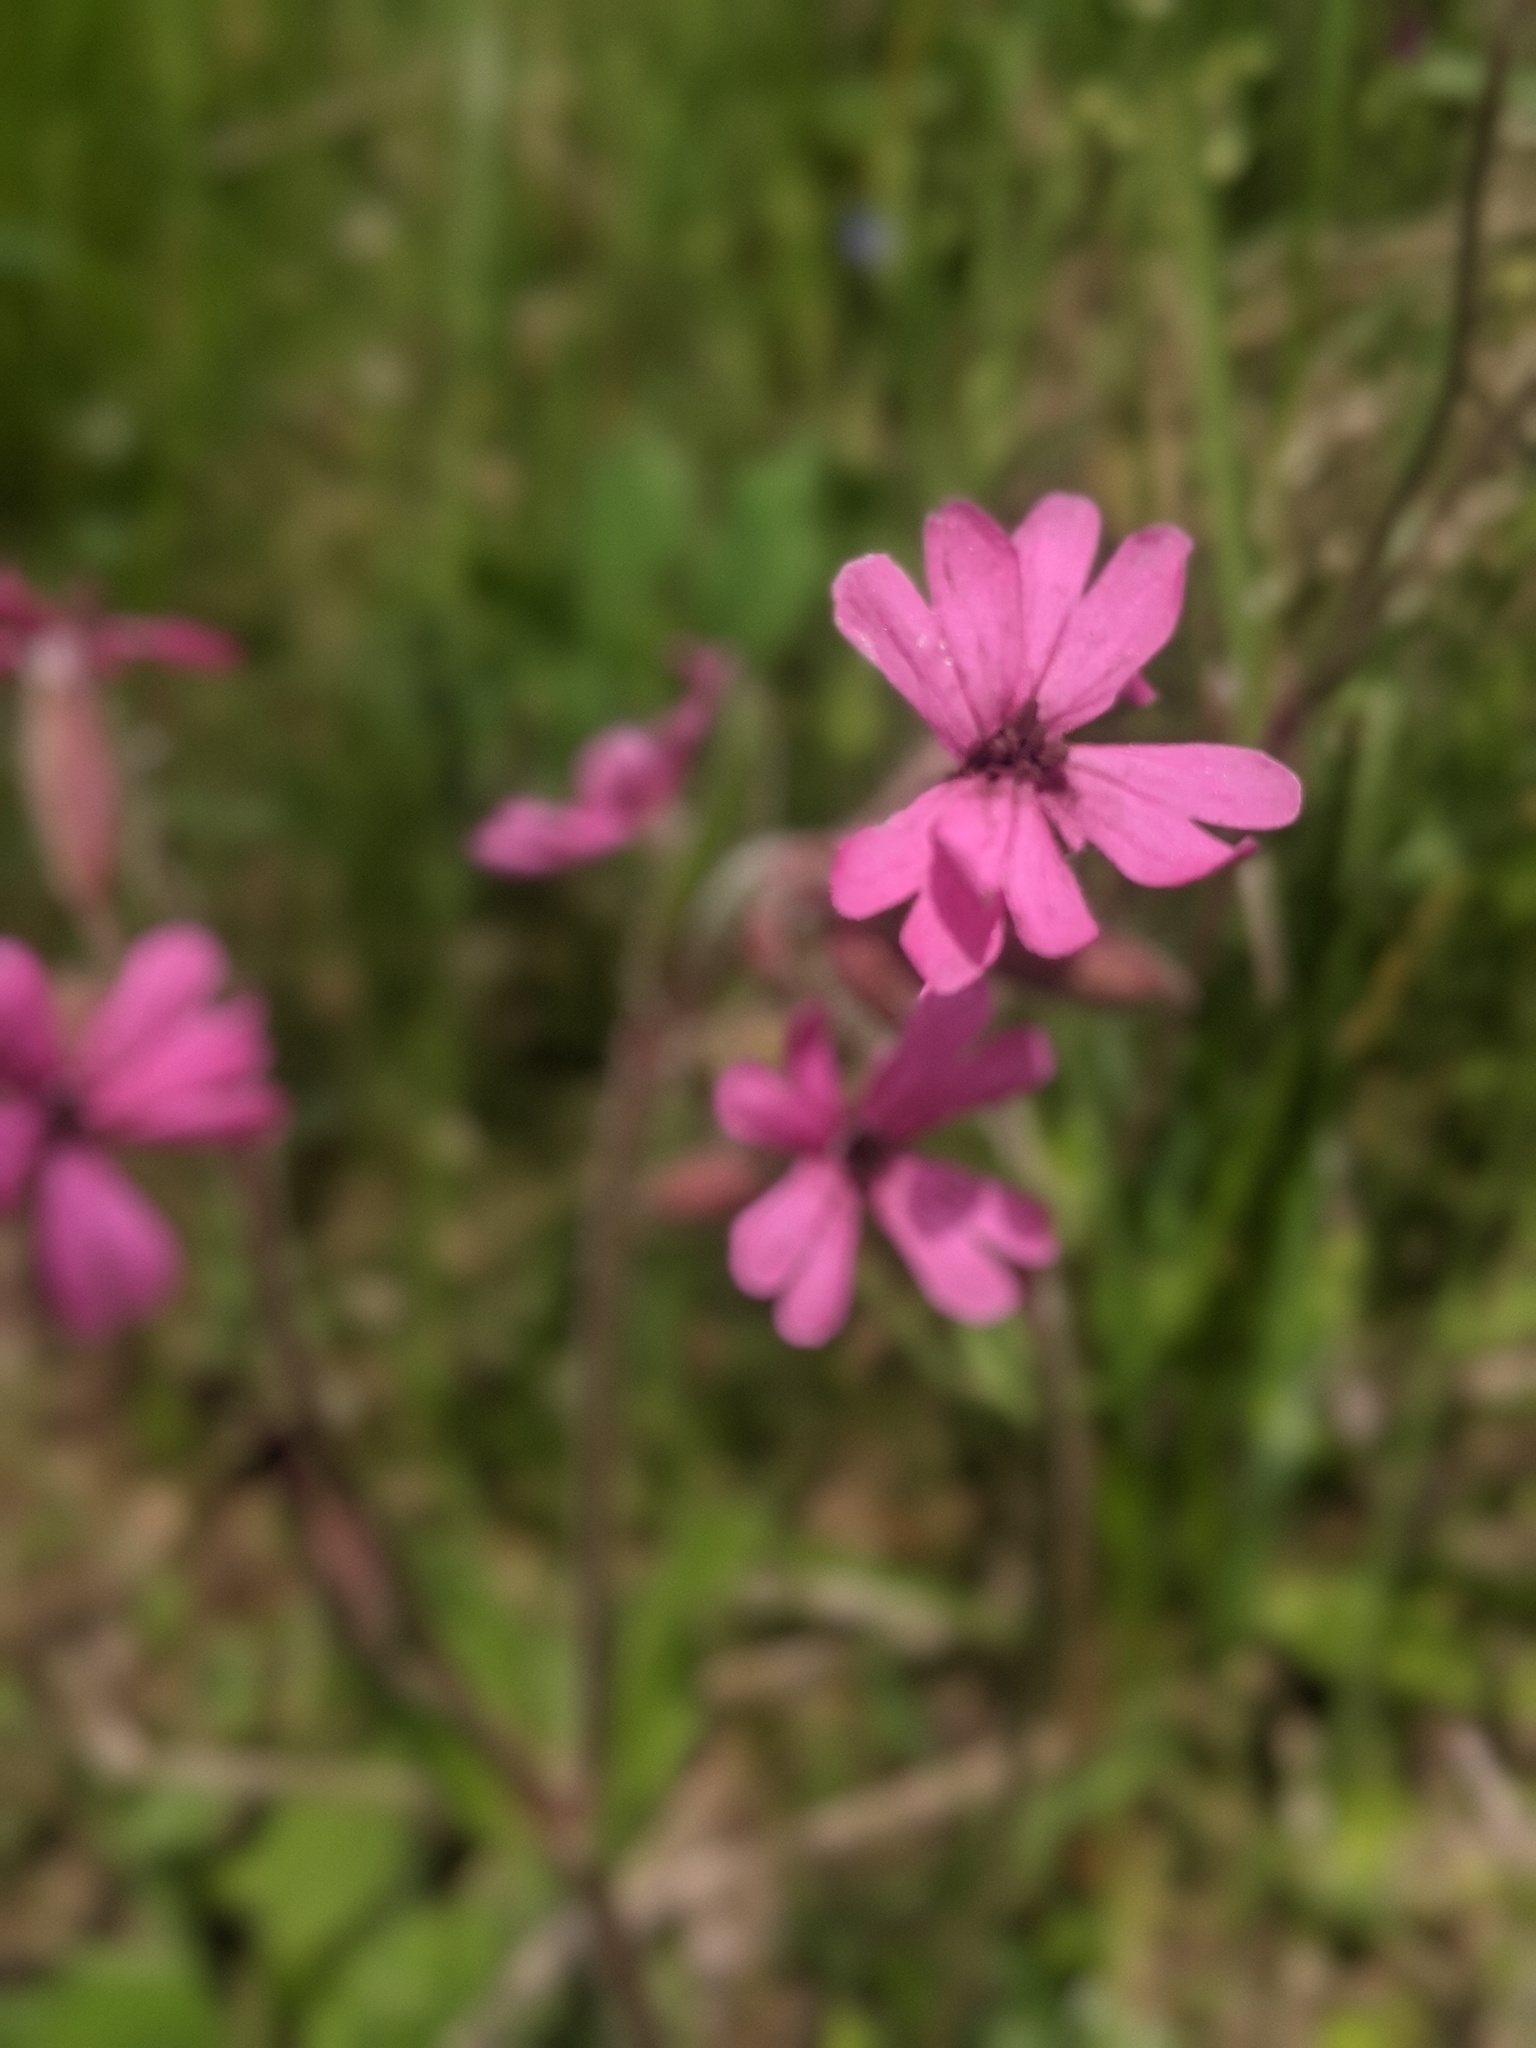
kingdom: Plantae
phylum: Tracheophyta
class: Magnoliopsida
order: Caryophyllales
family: Caryophyllaceae
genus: Silene
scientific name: Silene dioica
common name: Red campion
